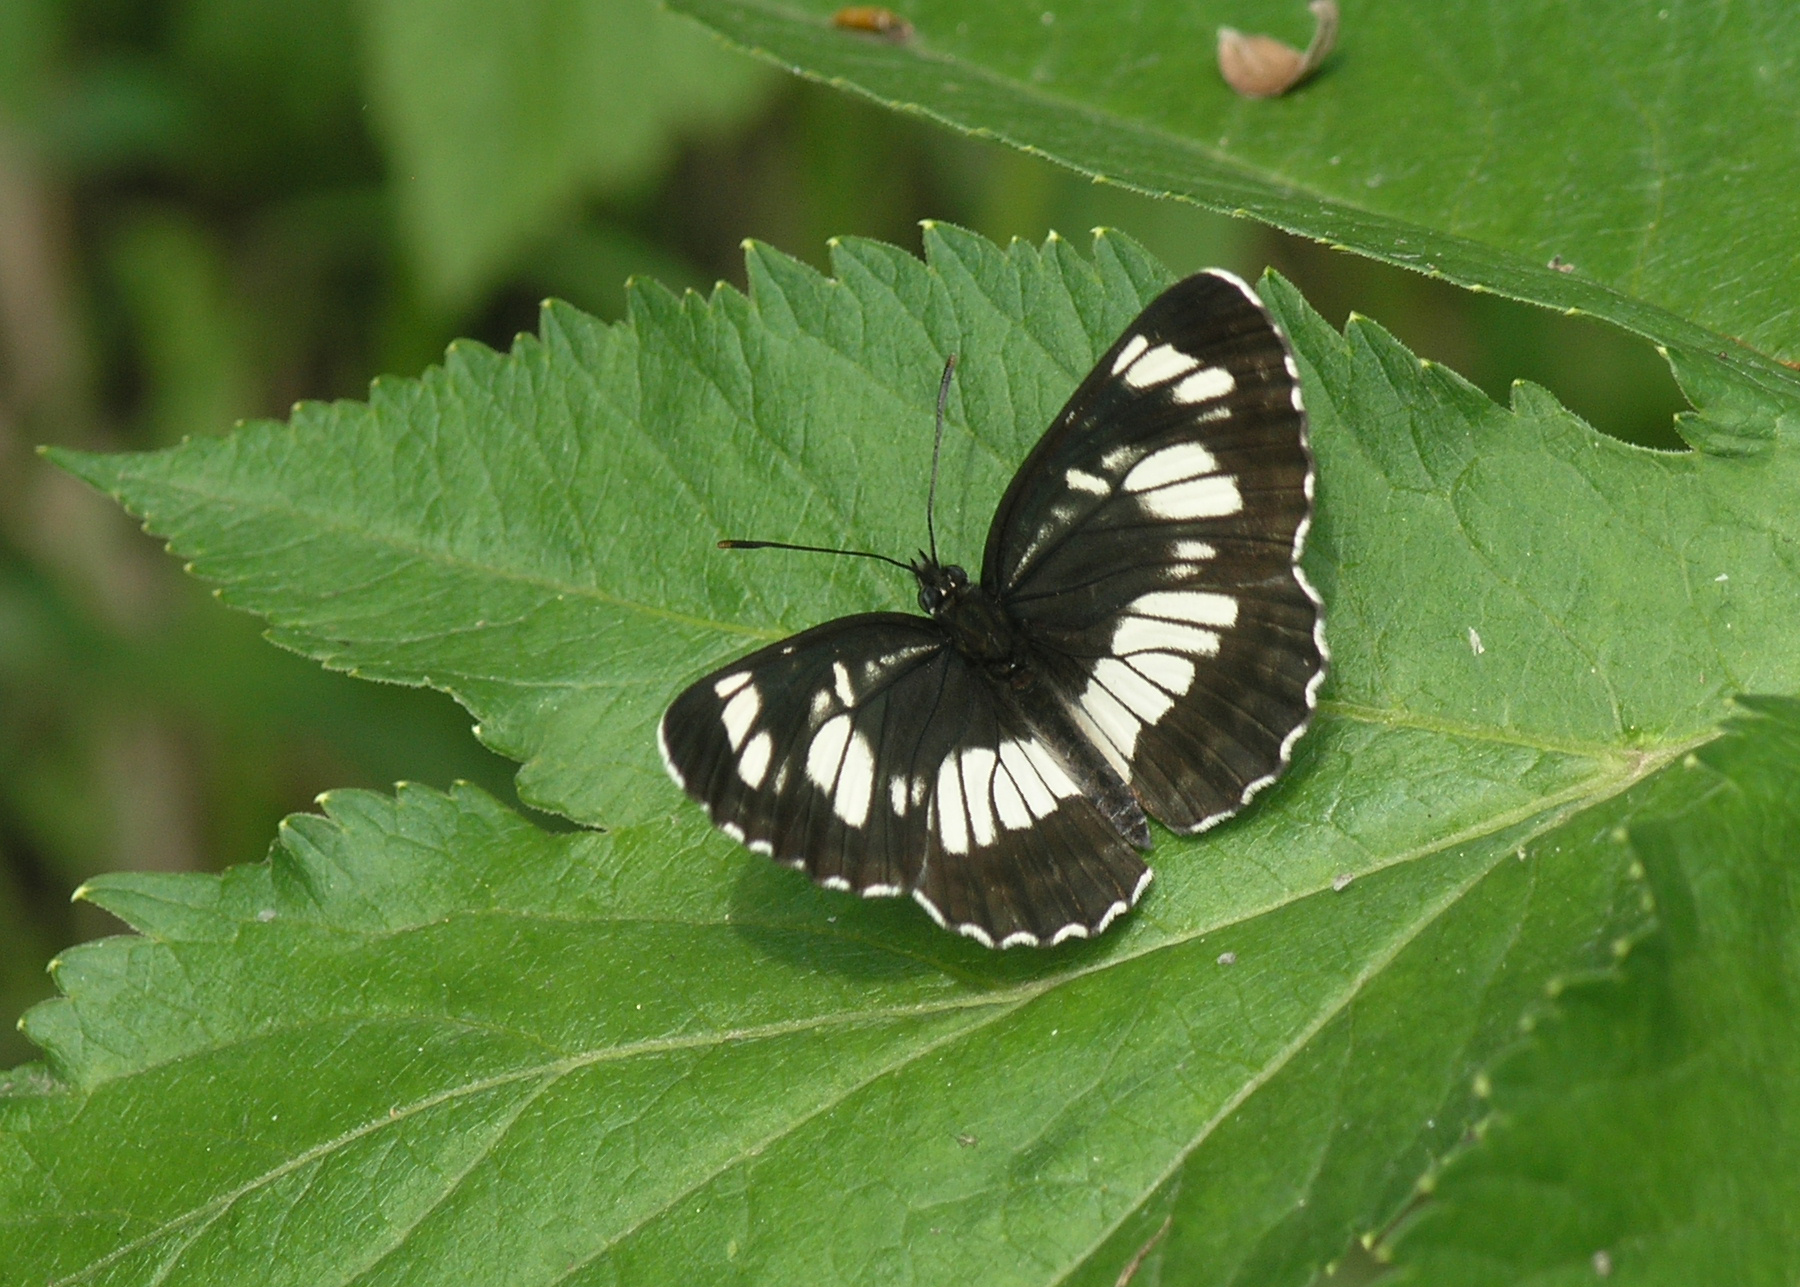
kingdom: Animalia
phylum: Arthropoda
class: Insecta
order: Lepidoptera
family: Nymphalidae
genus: Neptis
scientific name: Neptis rivularis
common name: Hungarian glider
